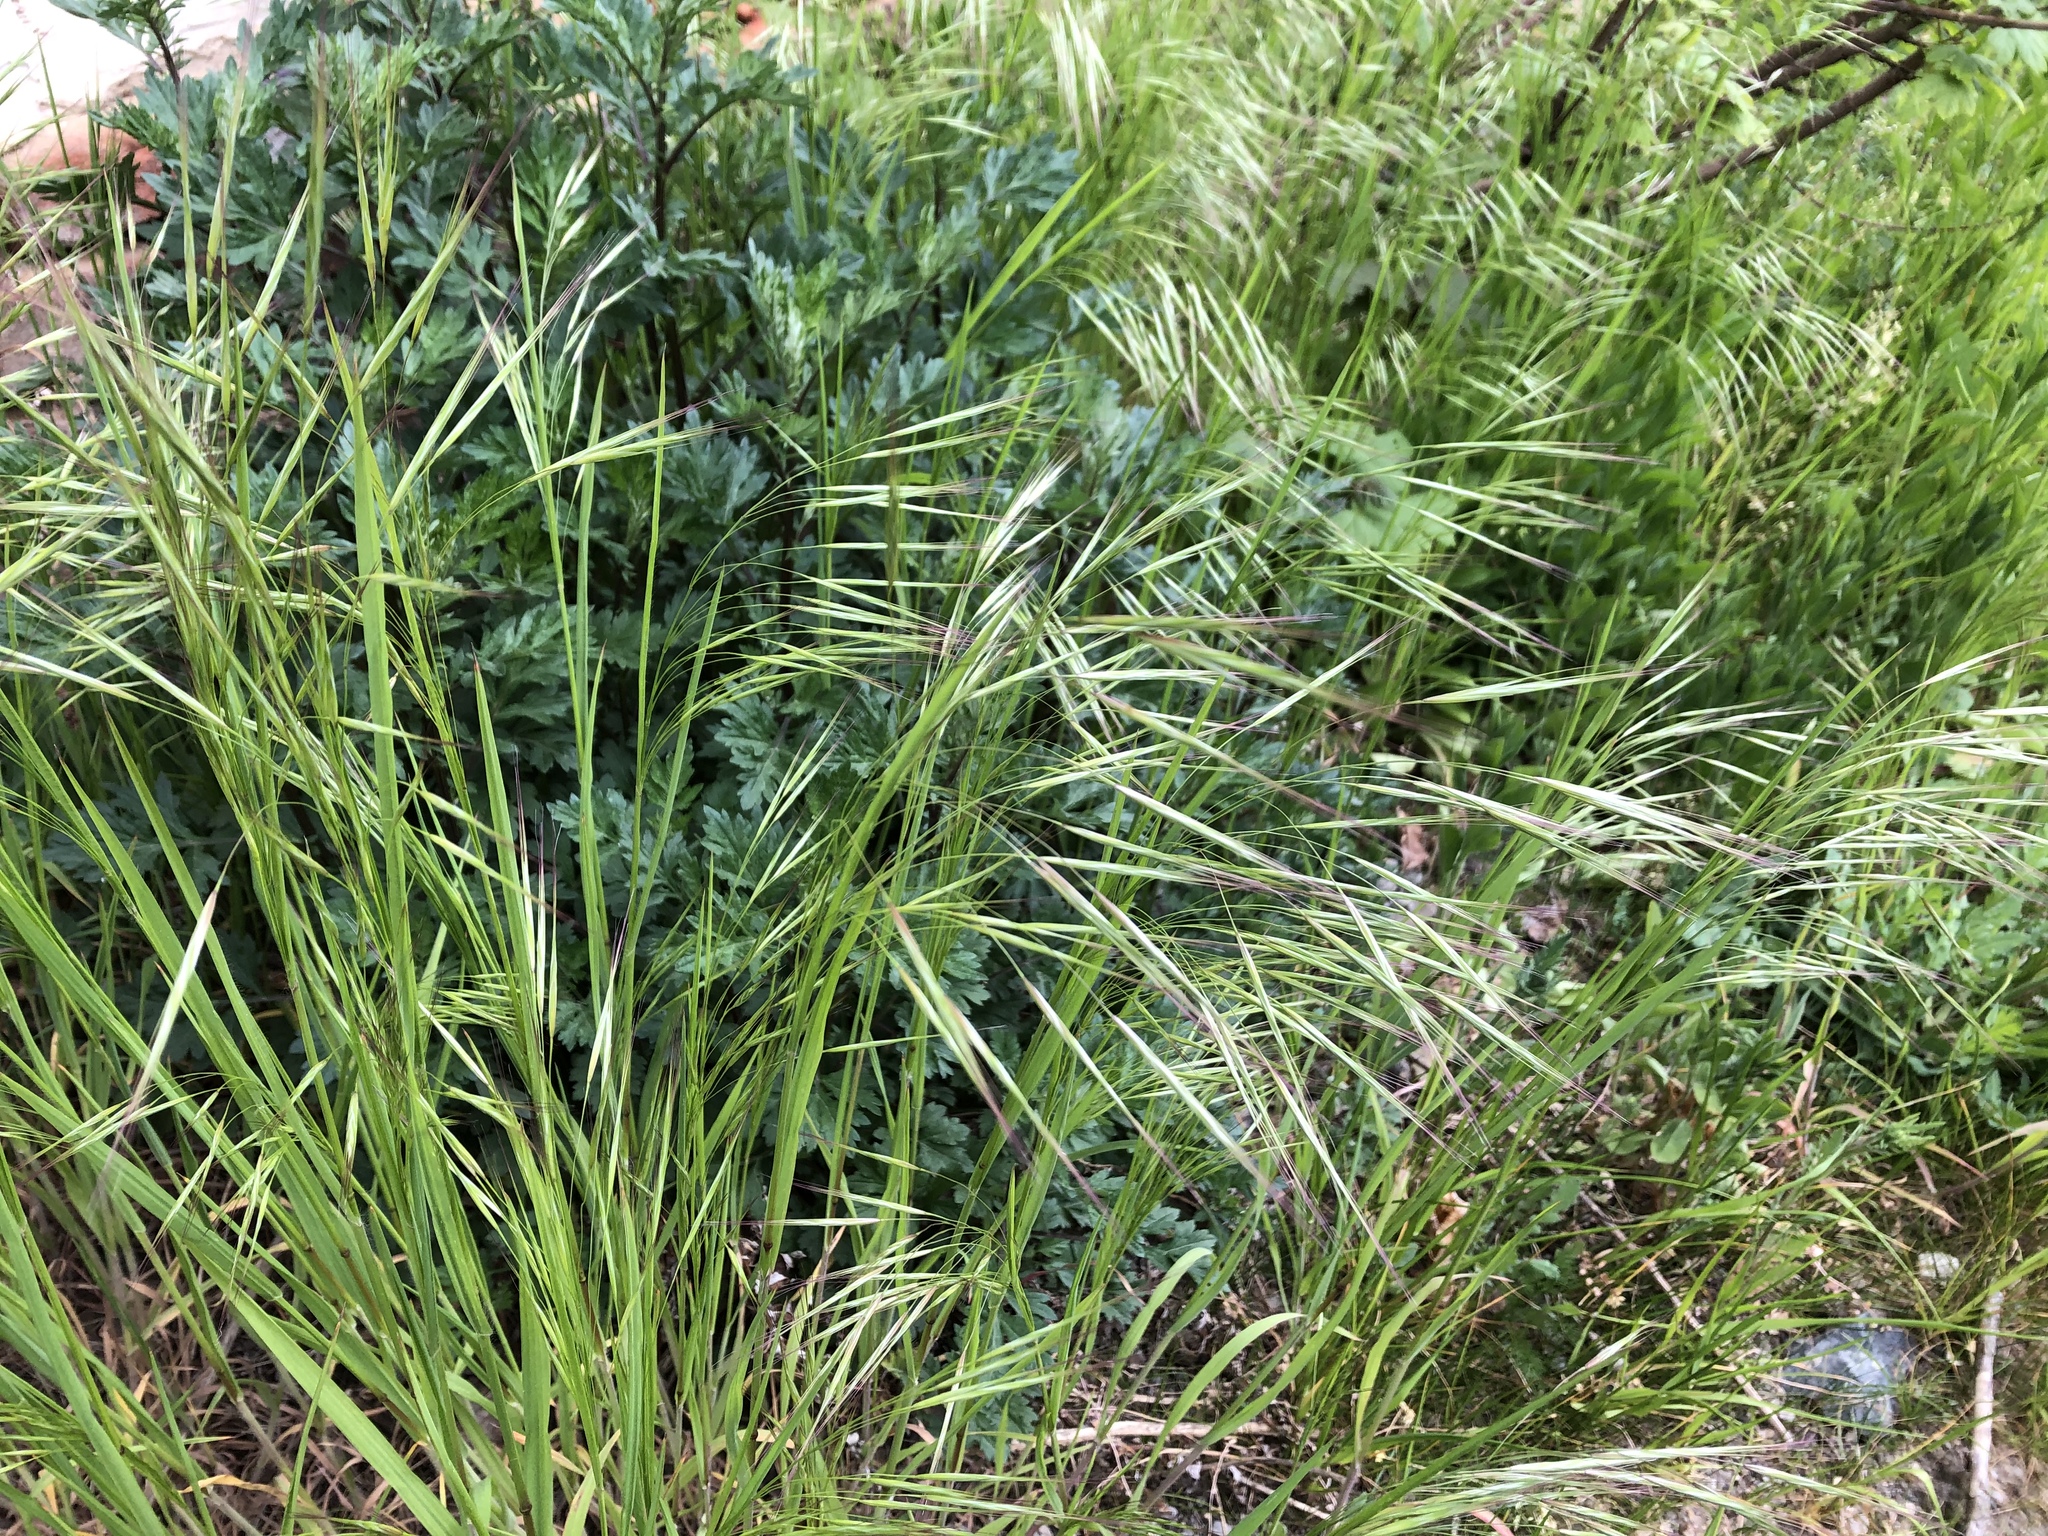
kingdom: Plantae
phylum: Tracheophyta
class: Liliopsida
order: Poales
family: Poaceae
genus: Bromus
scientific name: Bromus sterilis
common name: Poverty brome
